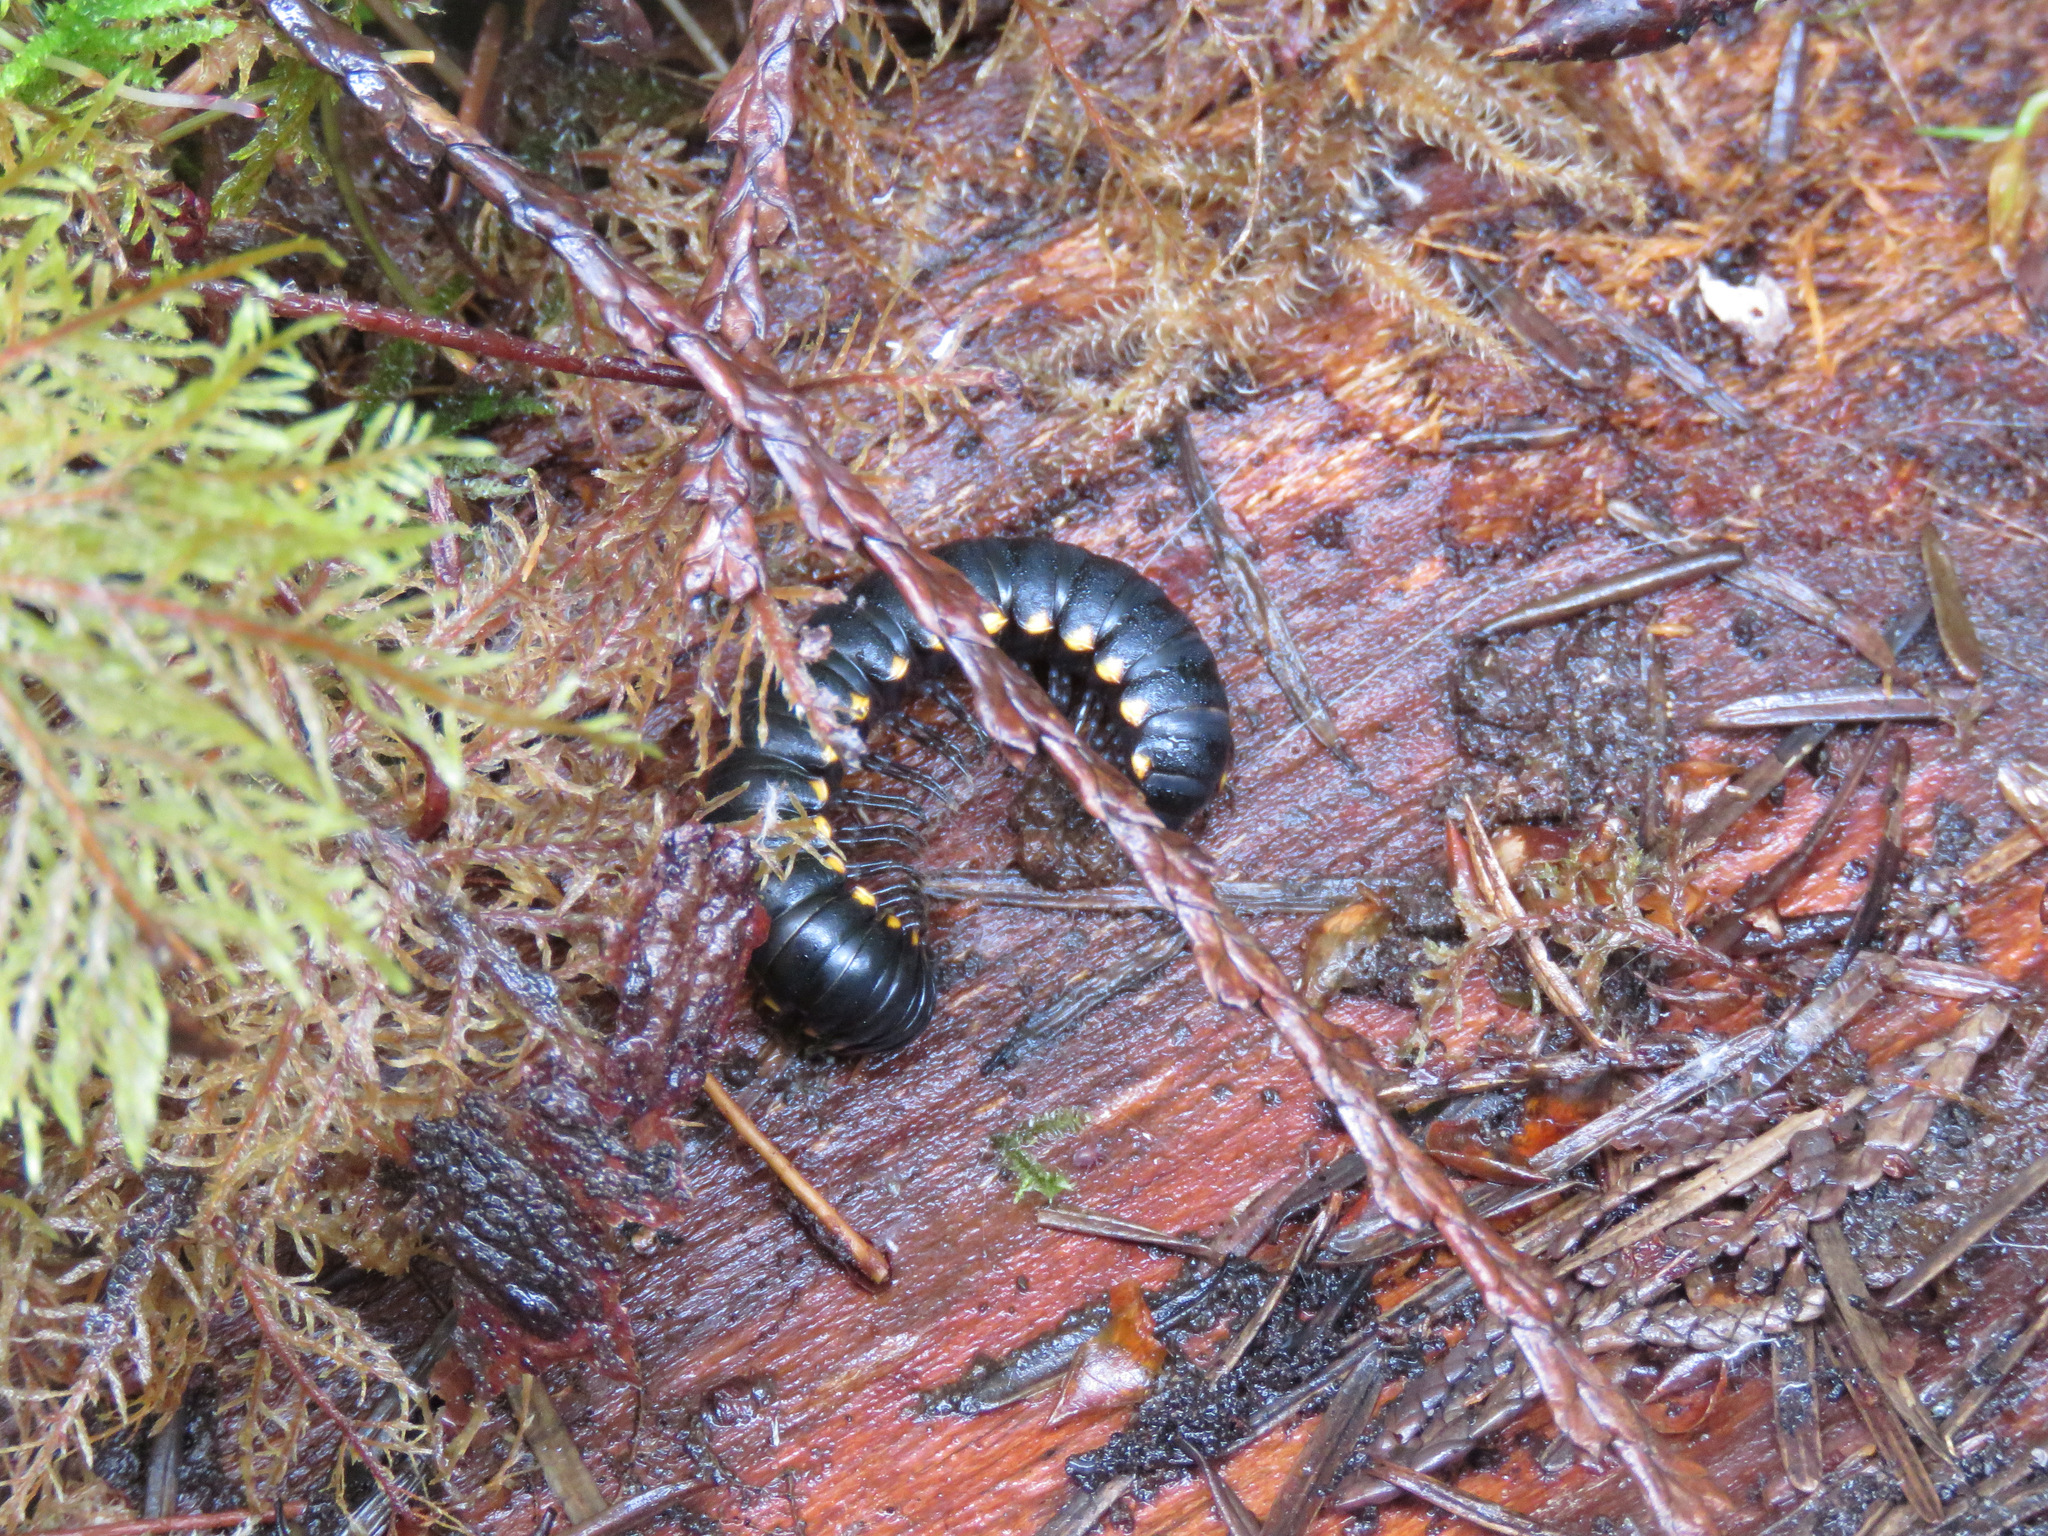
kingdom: Animalia
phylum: Arthropoda
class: Diplopoda
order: Polydesmida
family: Xystodesmidae
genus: Harpaphe
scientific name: Harpaphe haydeniana
